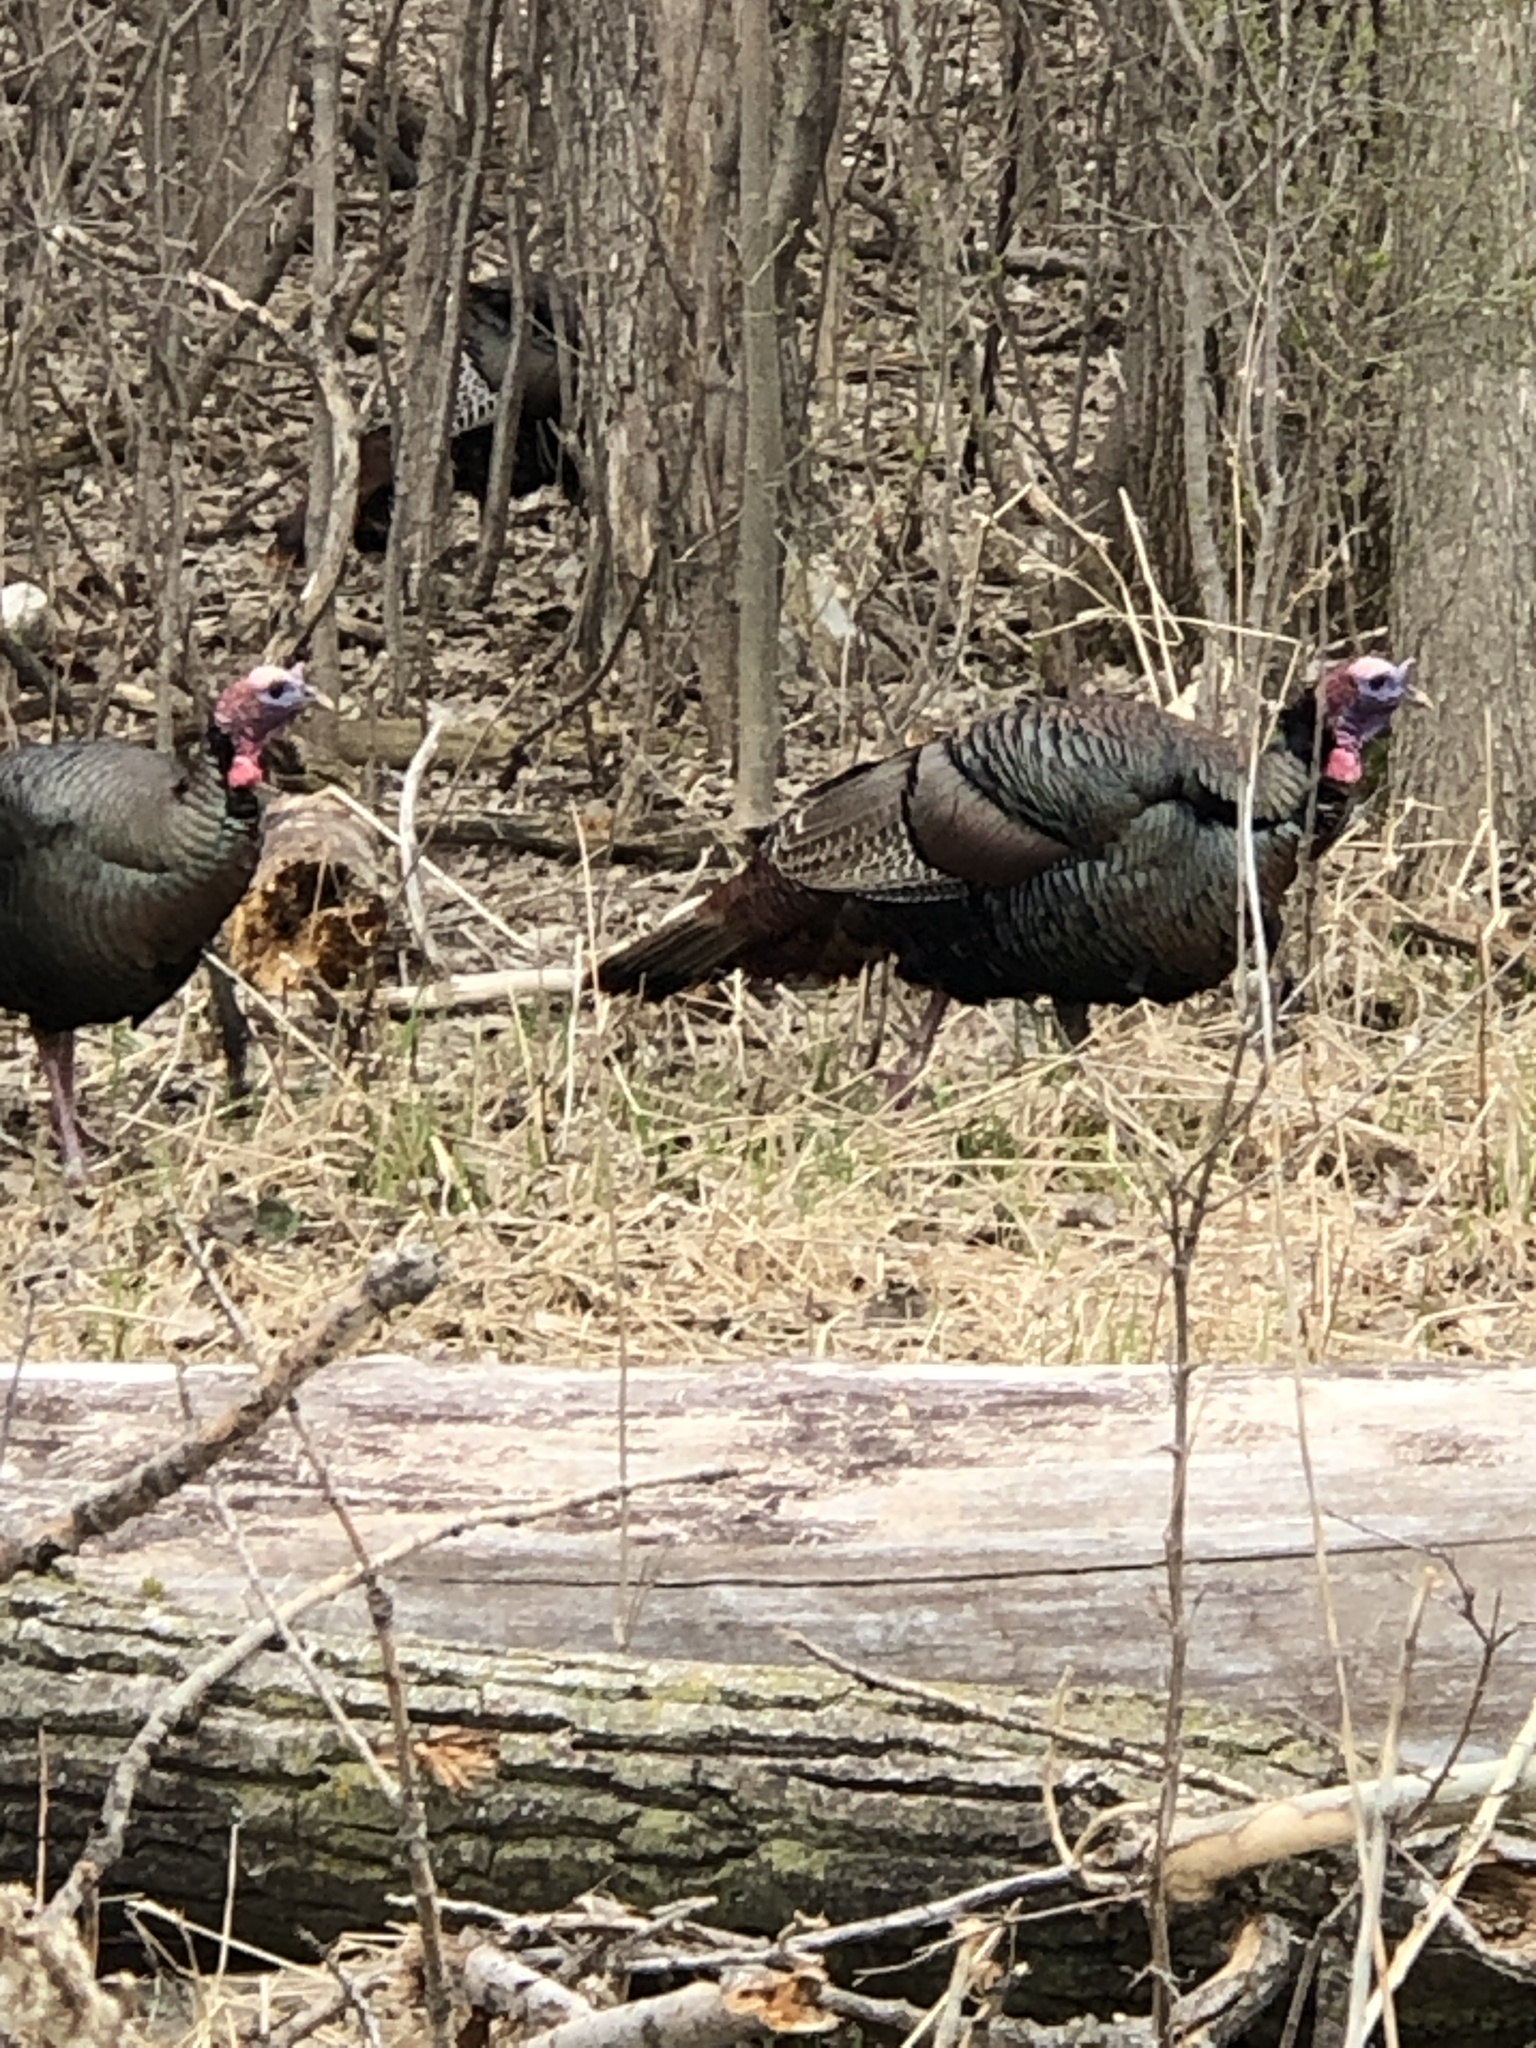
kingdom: Animalia
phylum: Chordata
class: Aves
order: Galliformes
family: Phasianidae
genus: Meleagris
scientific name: Meleagris gallopavo
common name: Wild turkey
